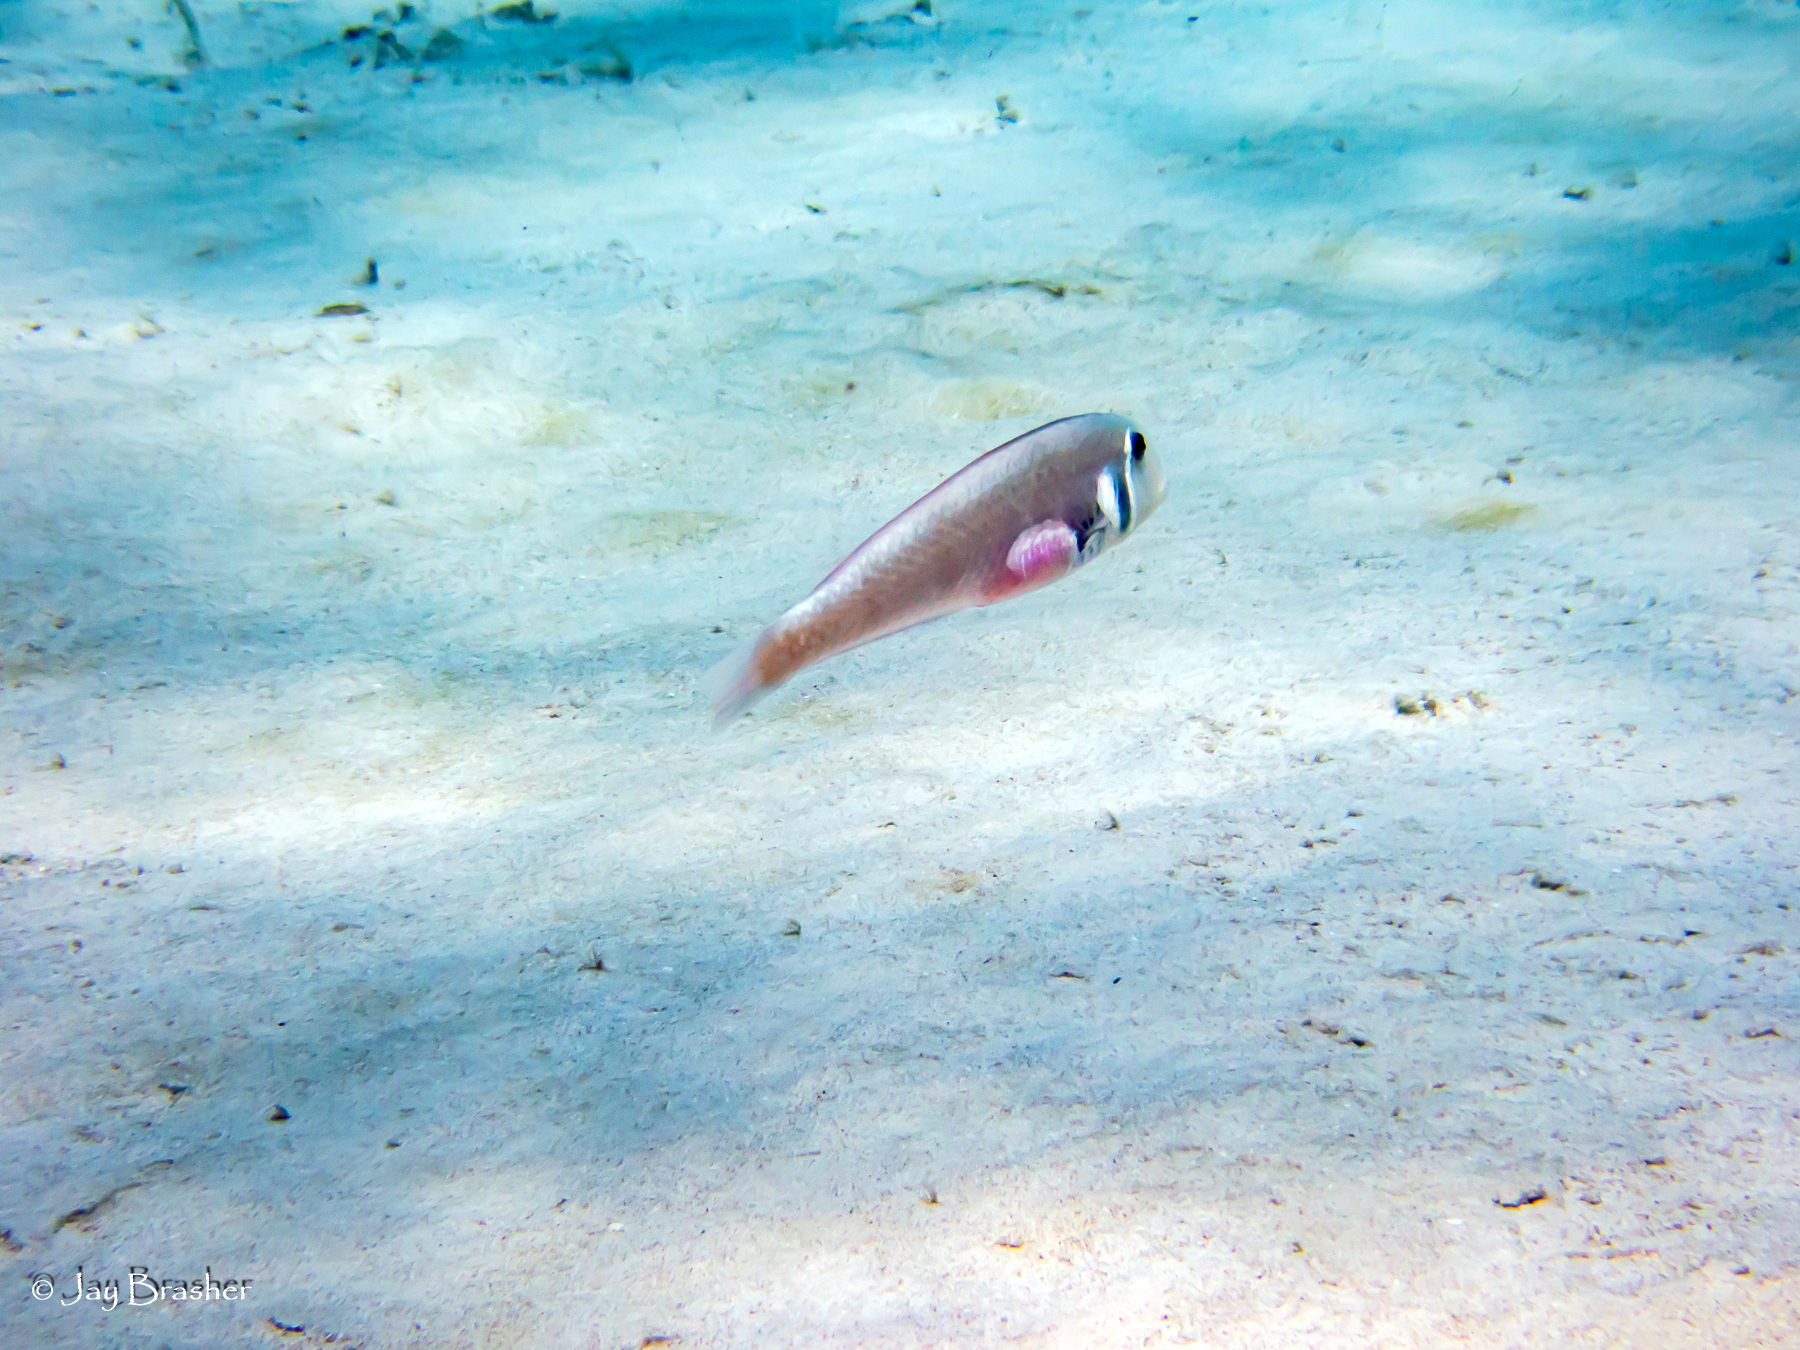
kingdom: Animalia
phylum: Chordata
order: Perciformes
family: Labridae
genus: Xyrichtys
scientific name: Xyrichtys martinicensis
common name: Rosy razorfish
